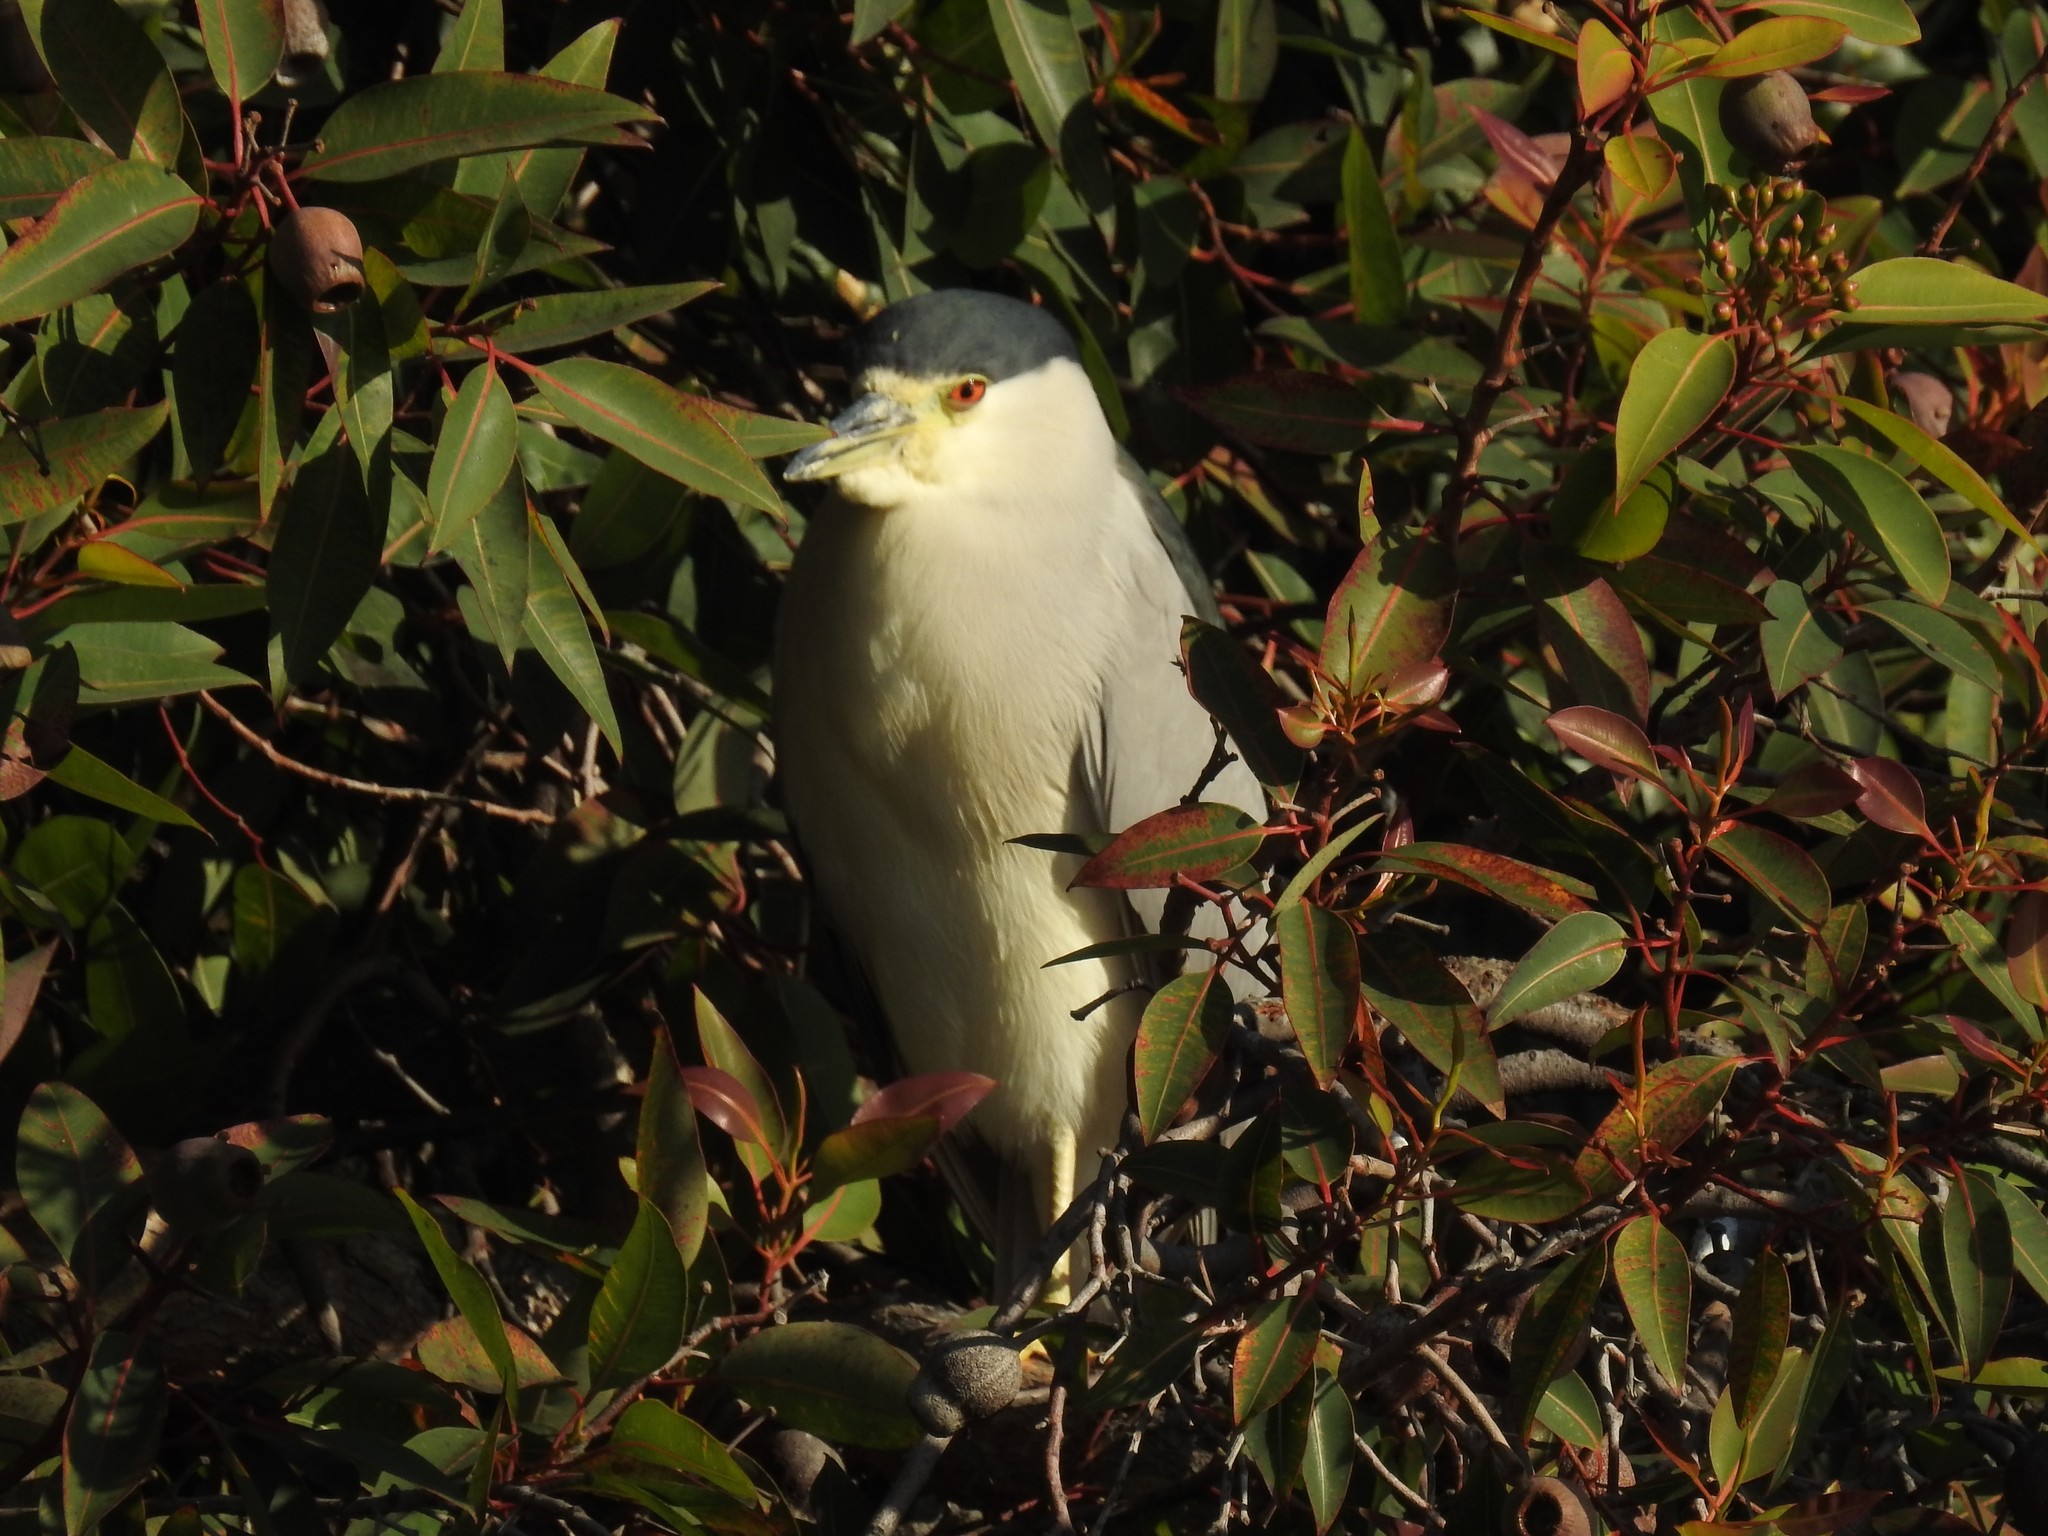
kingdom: Animalia
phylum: Chordata
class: Aves
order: Pelecaniformes
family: Ardeidae
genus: Nycticorax
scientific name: Nycticorax nycticorax
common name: Black-crowned night heron
